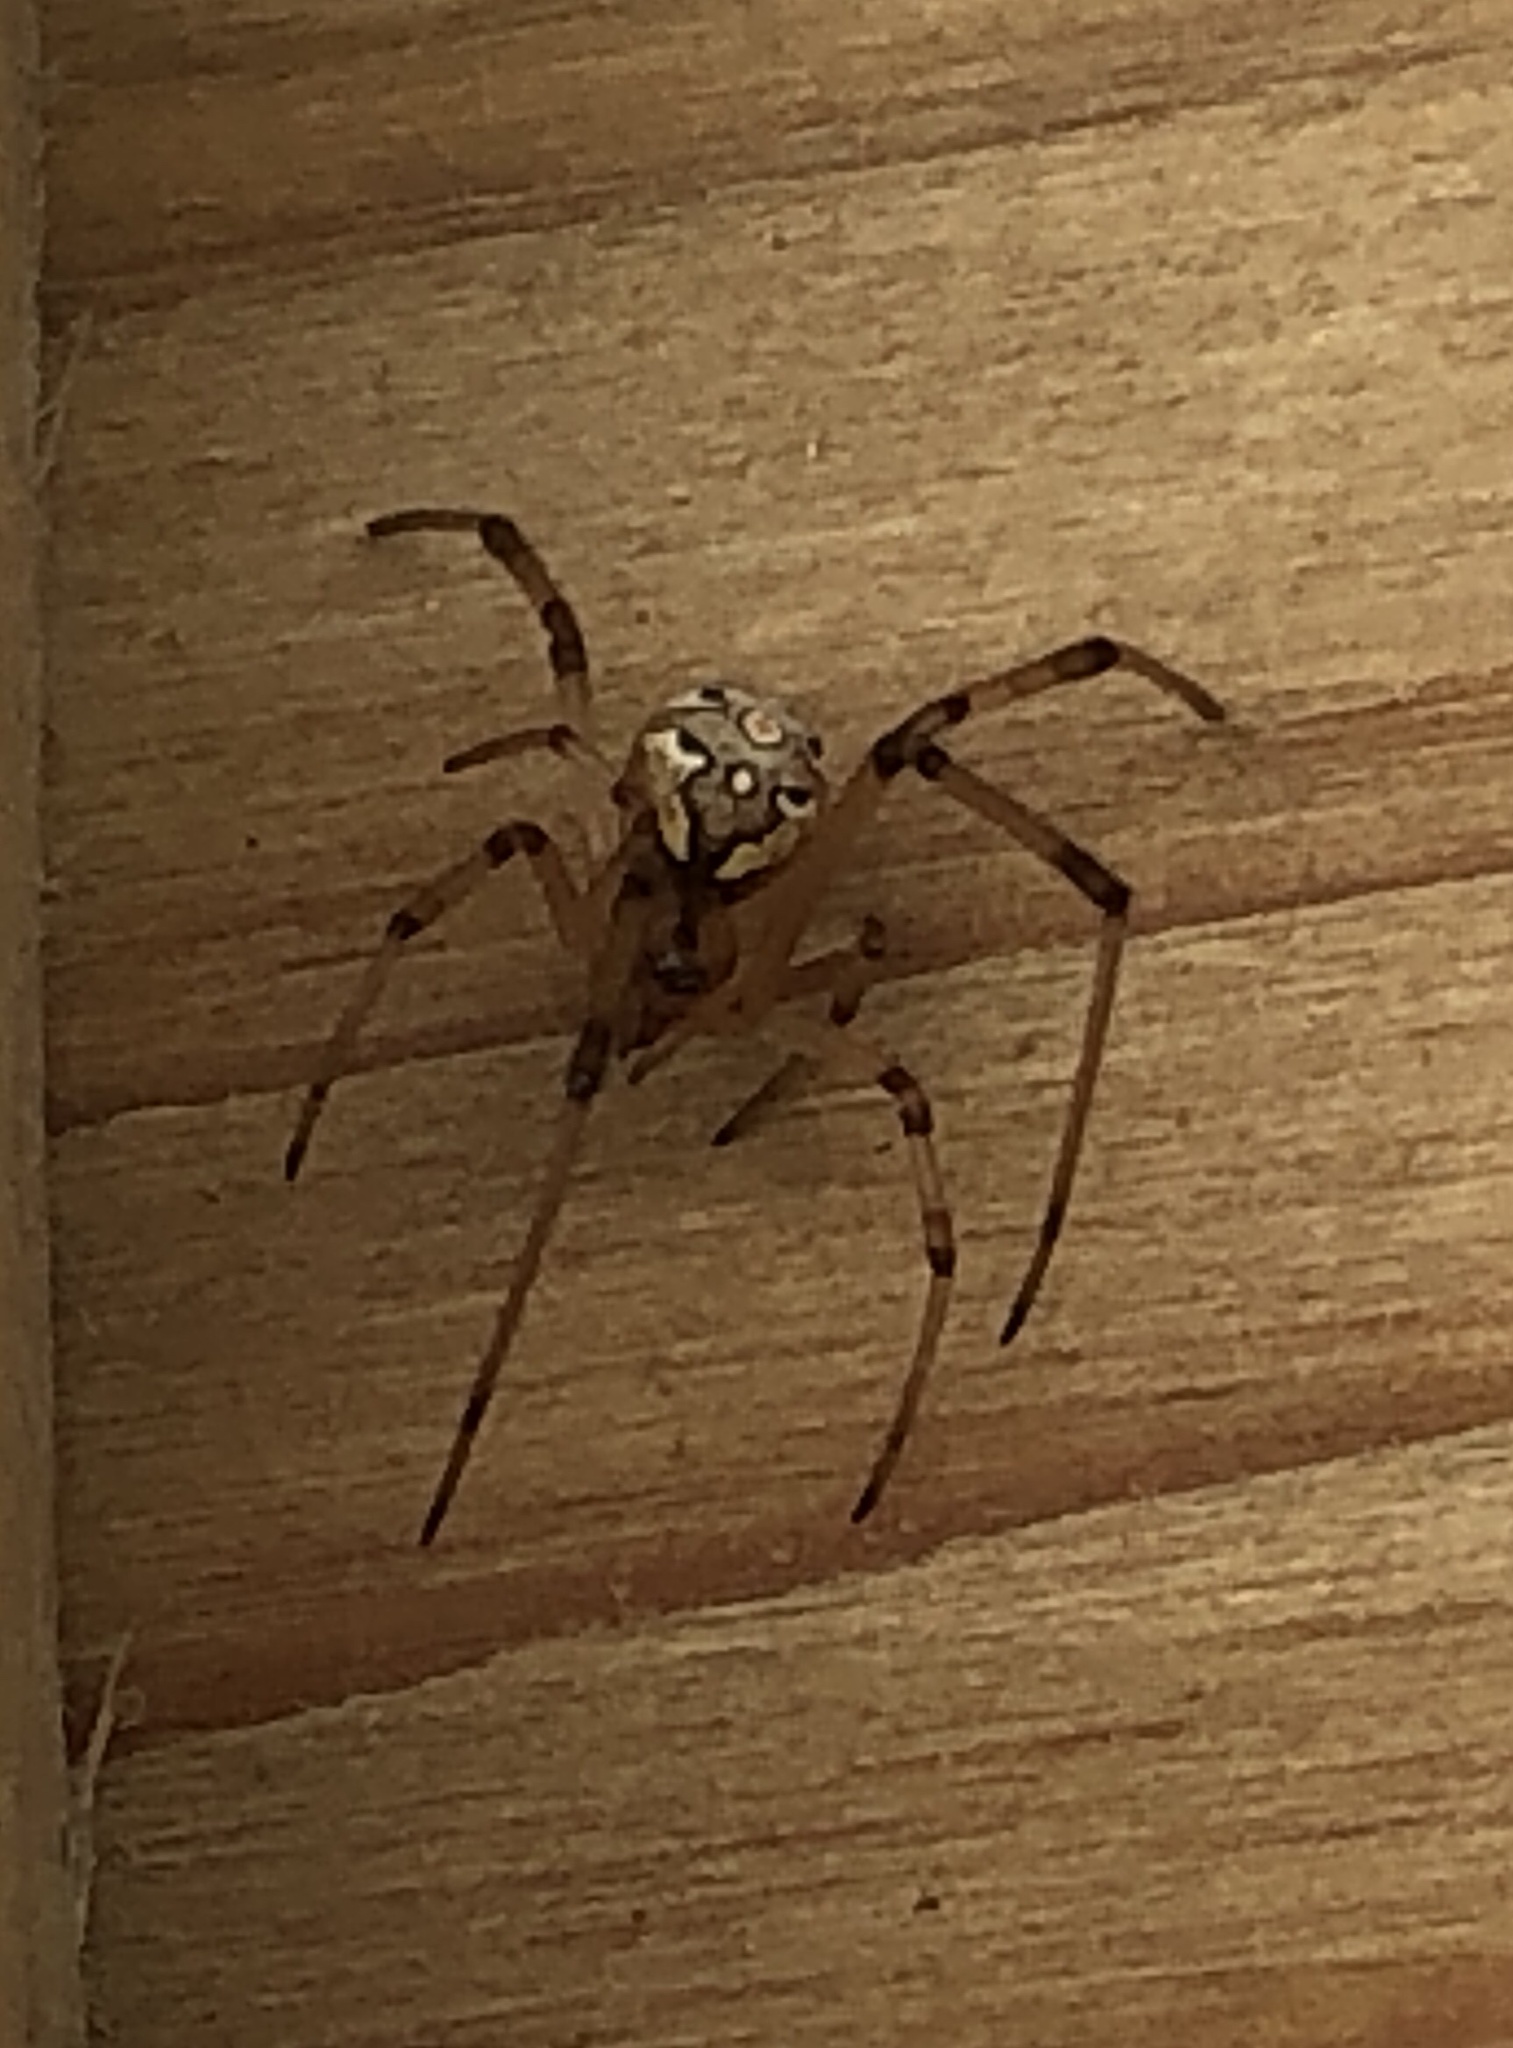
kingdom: Animalia
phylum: Arthropoda
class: Arachnida
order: Araneae
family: Theridiidae
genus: Latrodectus
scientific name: Latrodectus geometricus
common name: Brown widow spider
